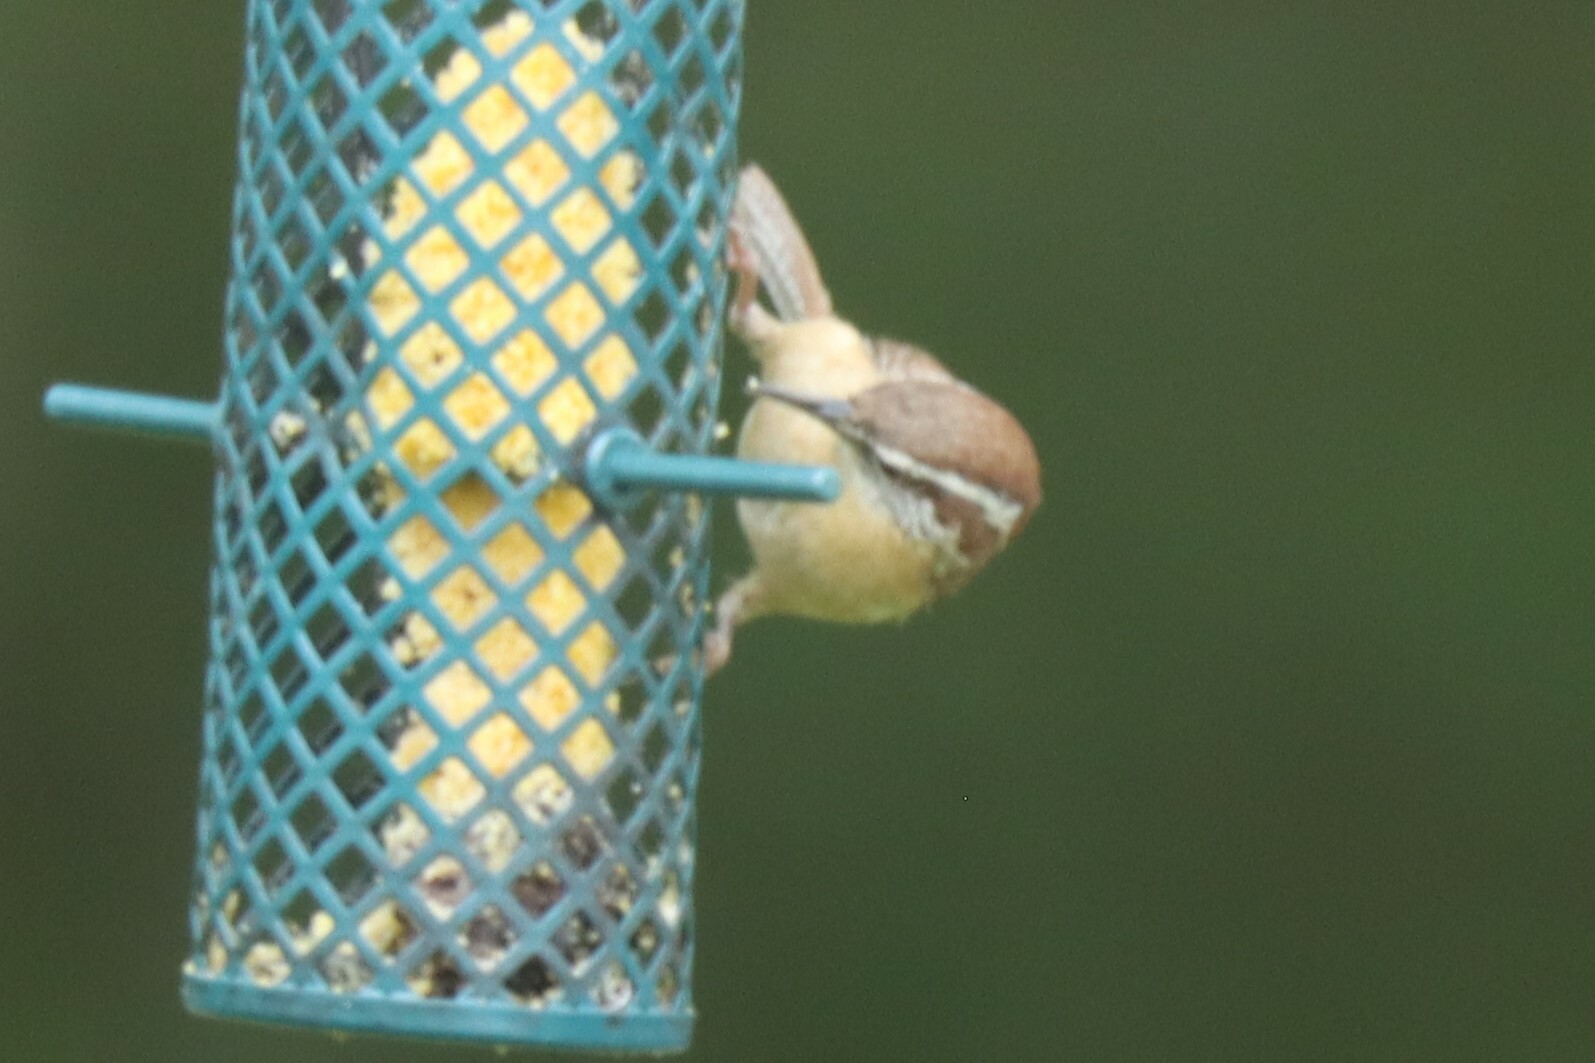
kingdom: Animalia
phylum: Chordata
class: Aves
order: Passeriformes
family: Troglodytidae
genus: Thryothorus
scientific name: Thryothorus ludovicianus
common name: Carolina wren
